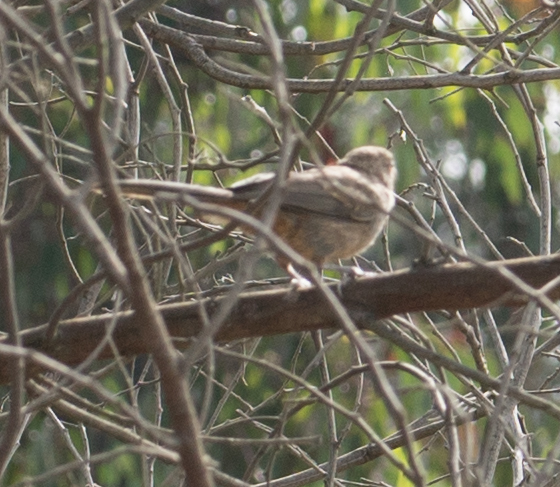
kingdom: Animalia
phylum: Chordata
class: Aves
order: Passeriformes
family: Passerellidae
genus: Melozone
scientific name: Melozone crissalis
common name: California towhee
